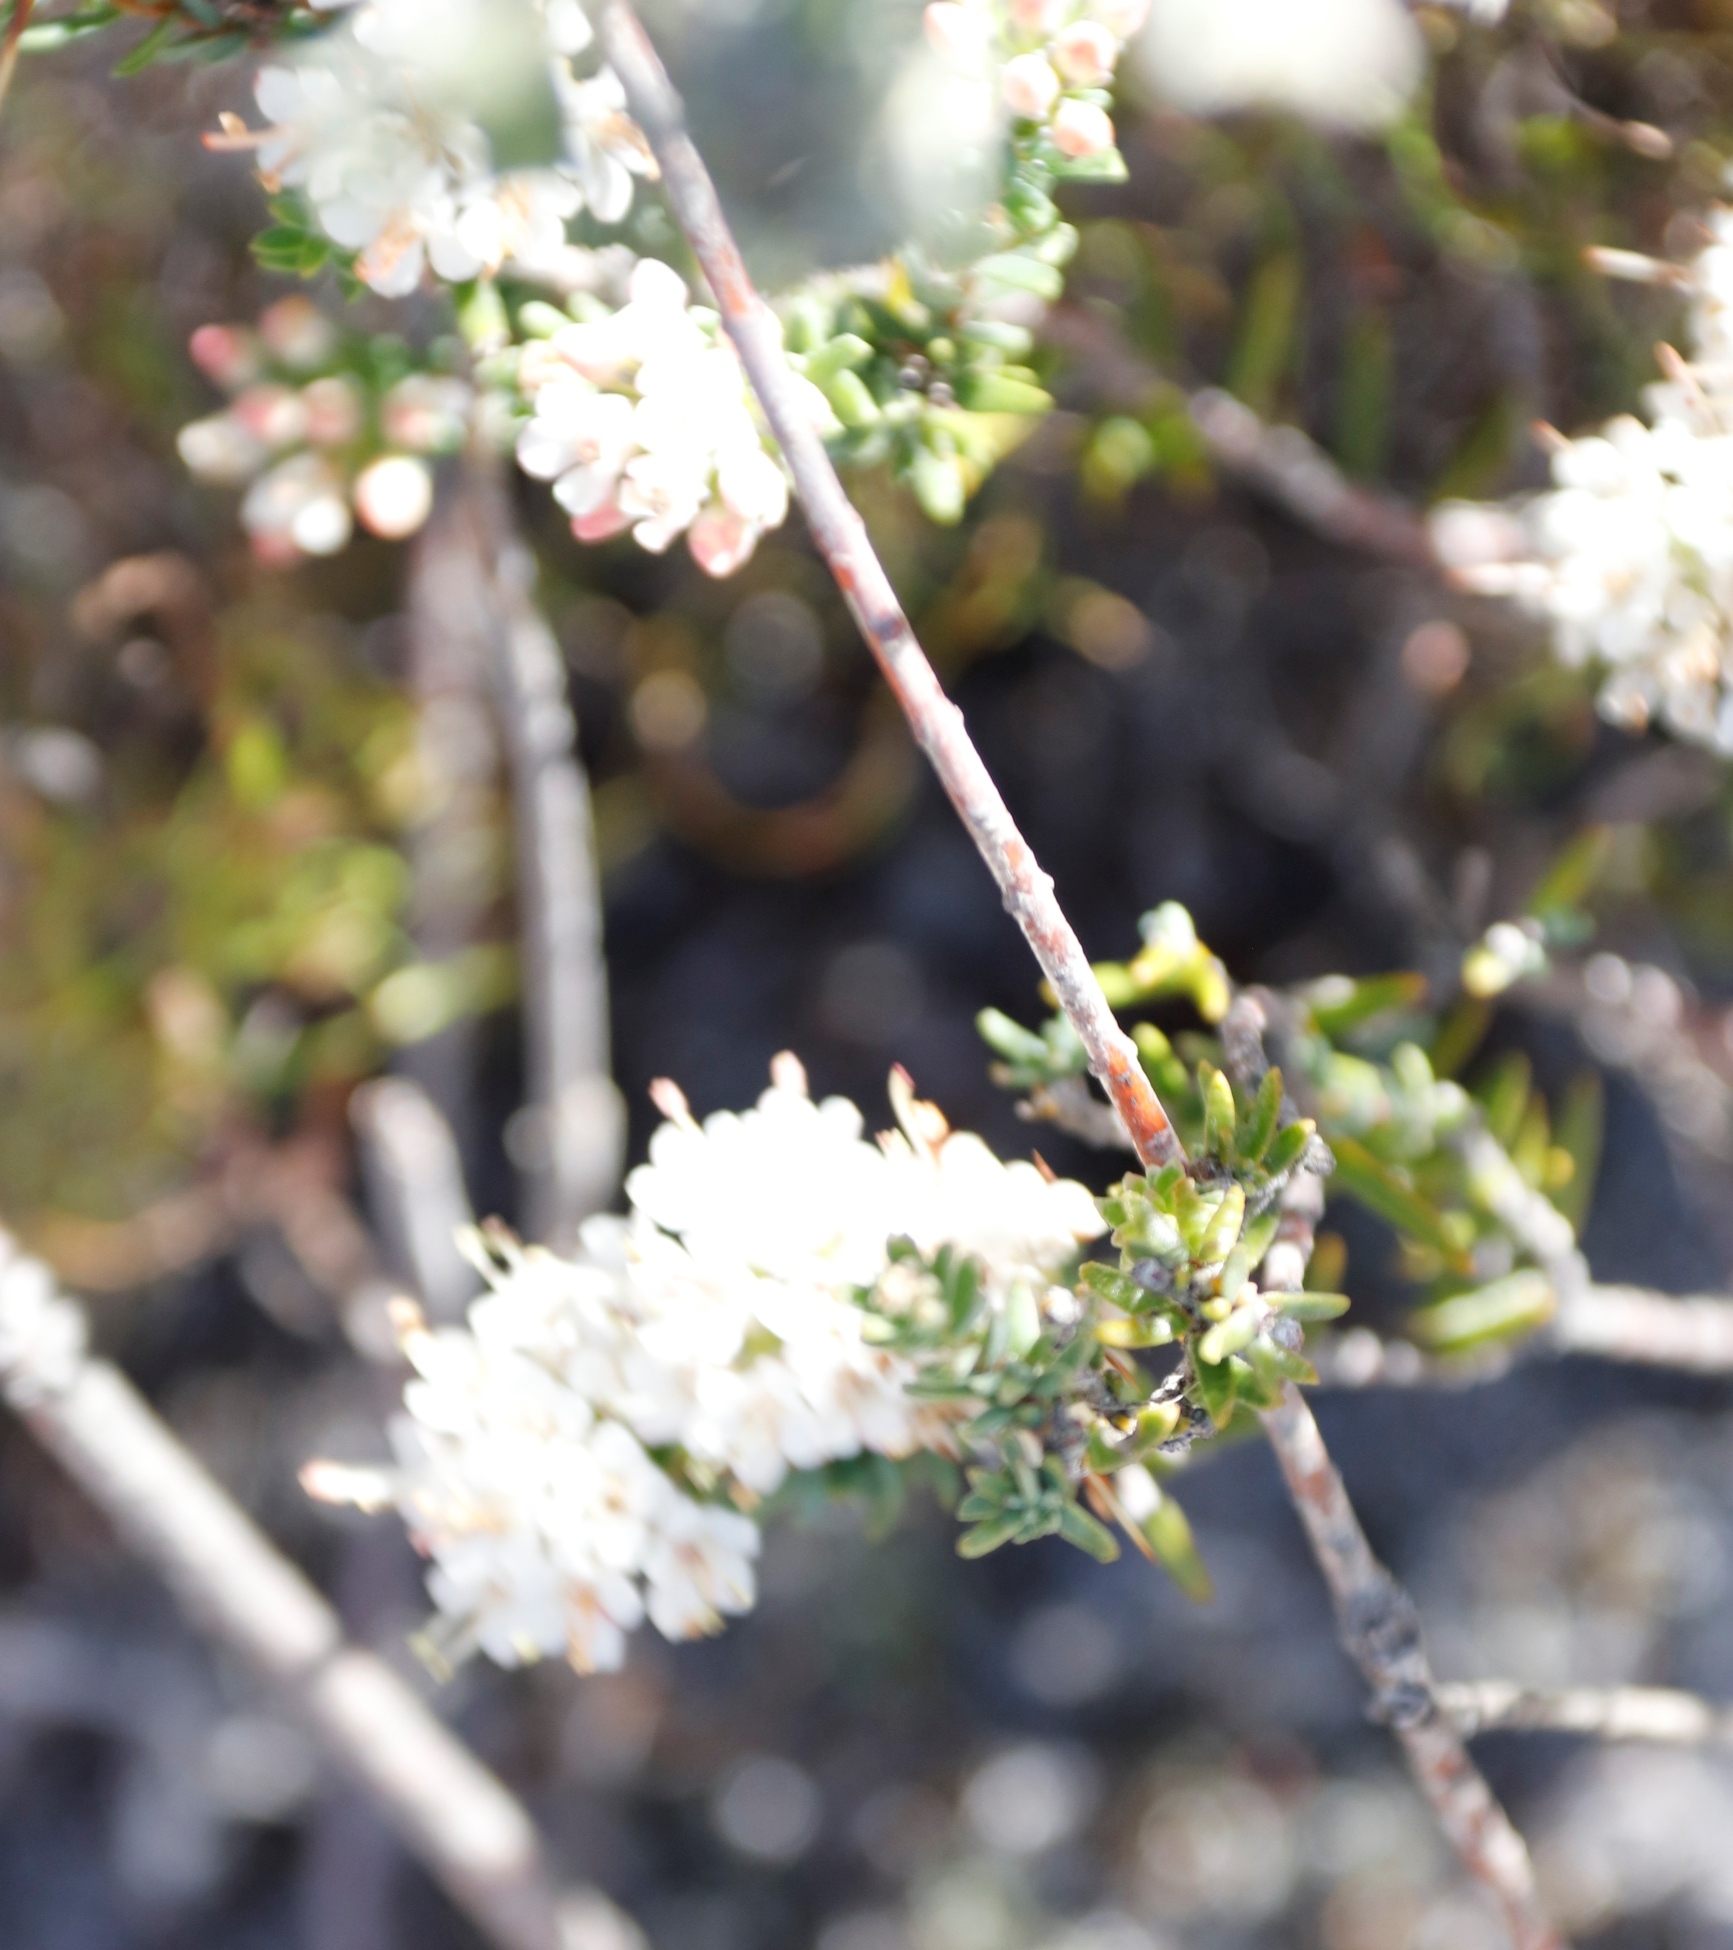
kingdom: Plantae
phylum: Tracheophyta
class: Magnoliopsida
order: Sapindales
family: Rutaceae
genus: Macrostylis
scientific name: Macrostylis villosa
